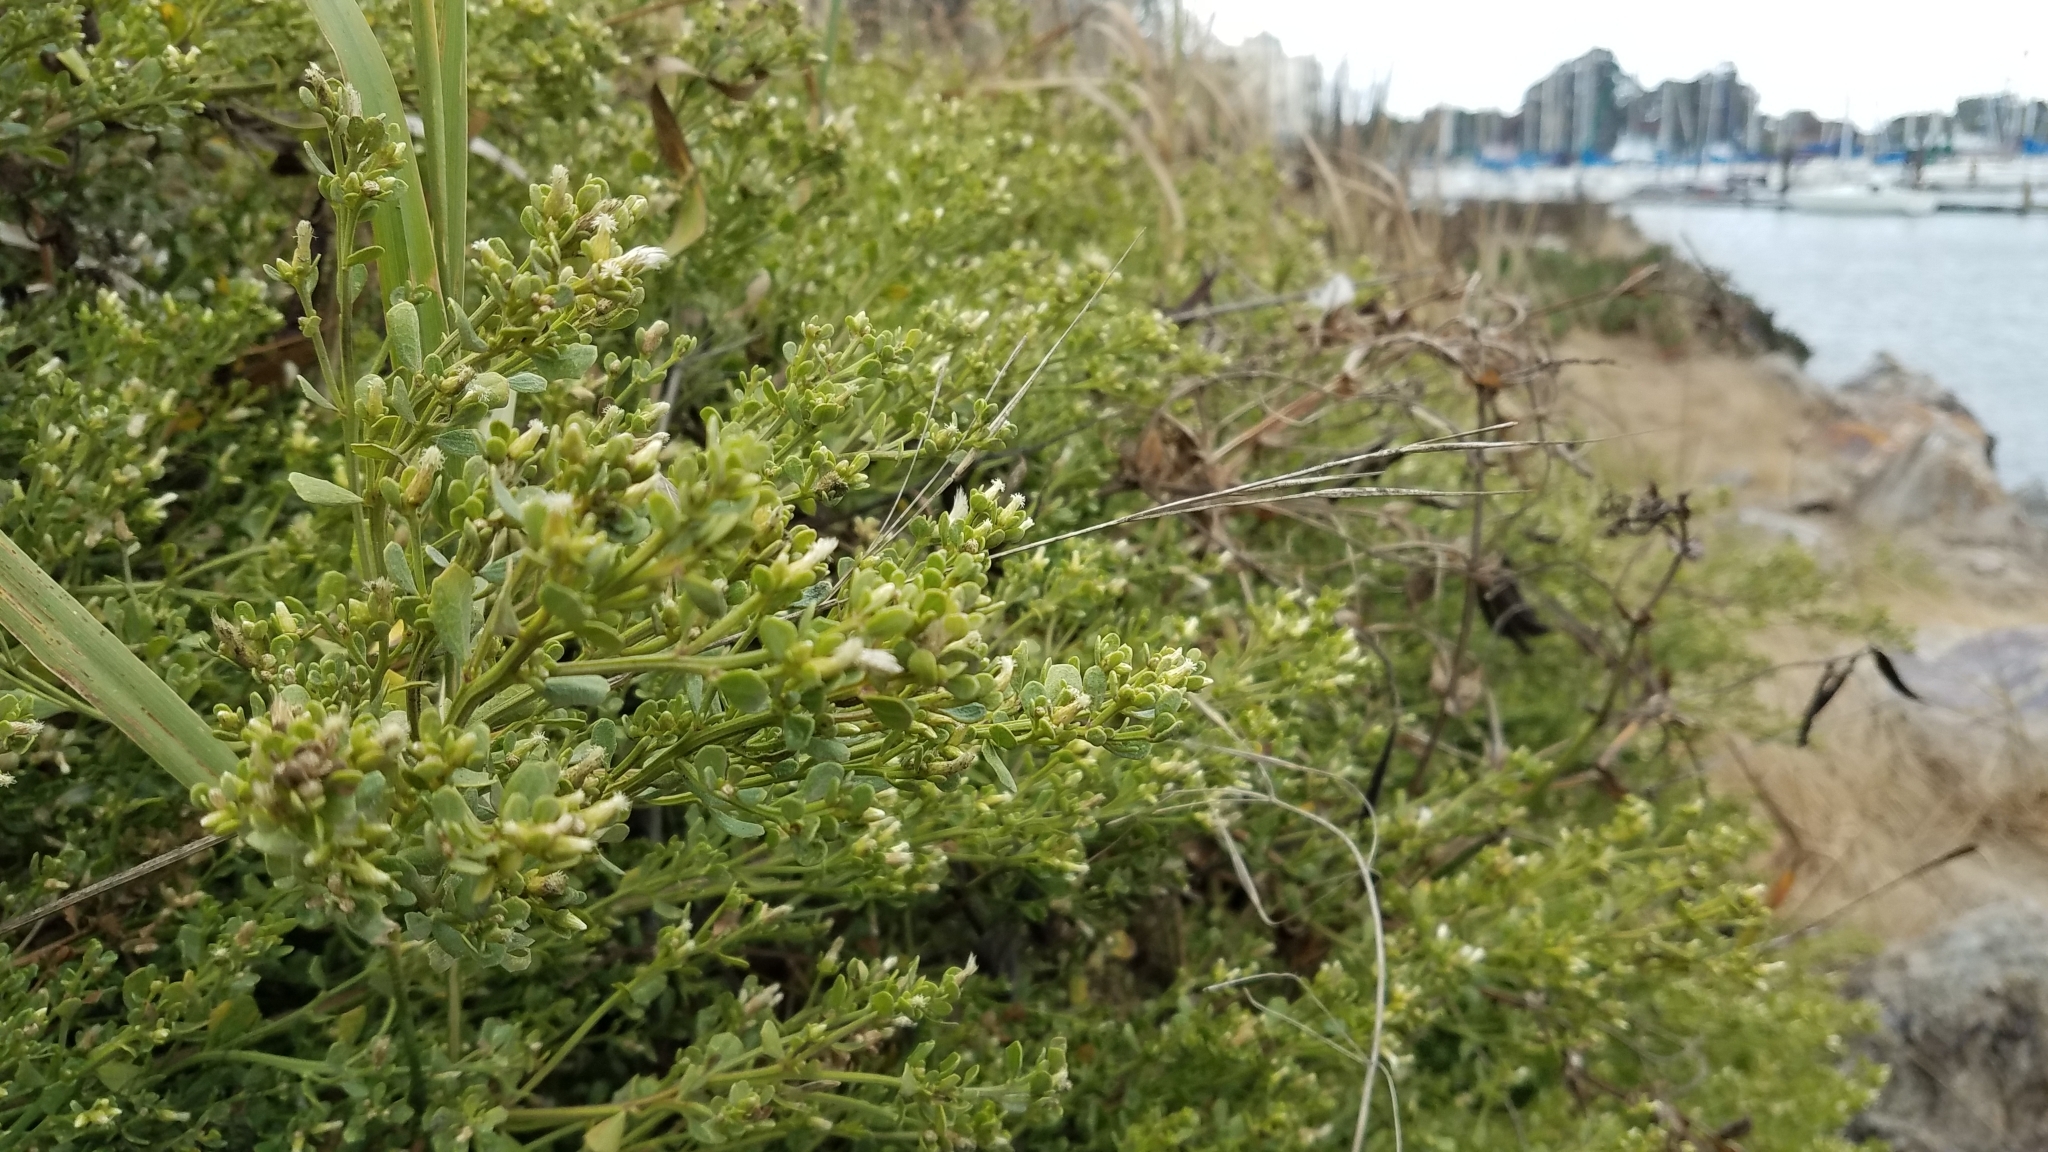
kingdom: Plantae
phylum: Tracheophyta
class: Magnoliopsida
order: Asterales
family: Asteraceae
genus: Baccharis
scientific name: Baccharis pilularis
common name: Coyotebrush
